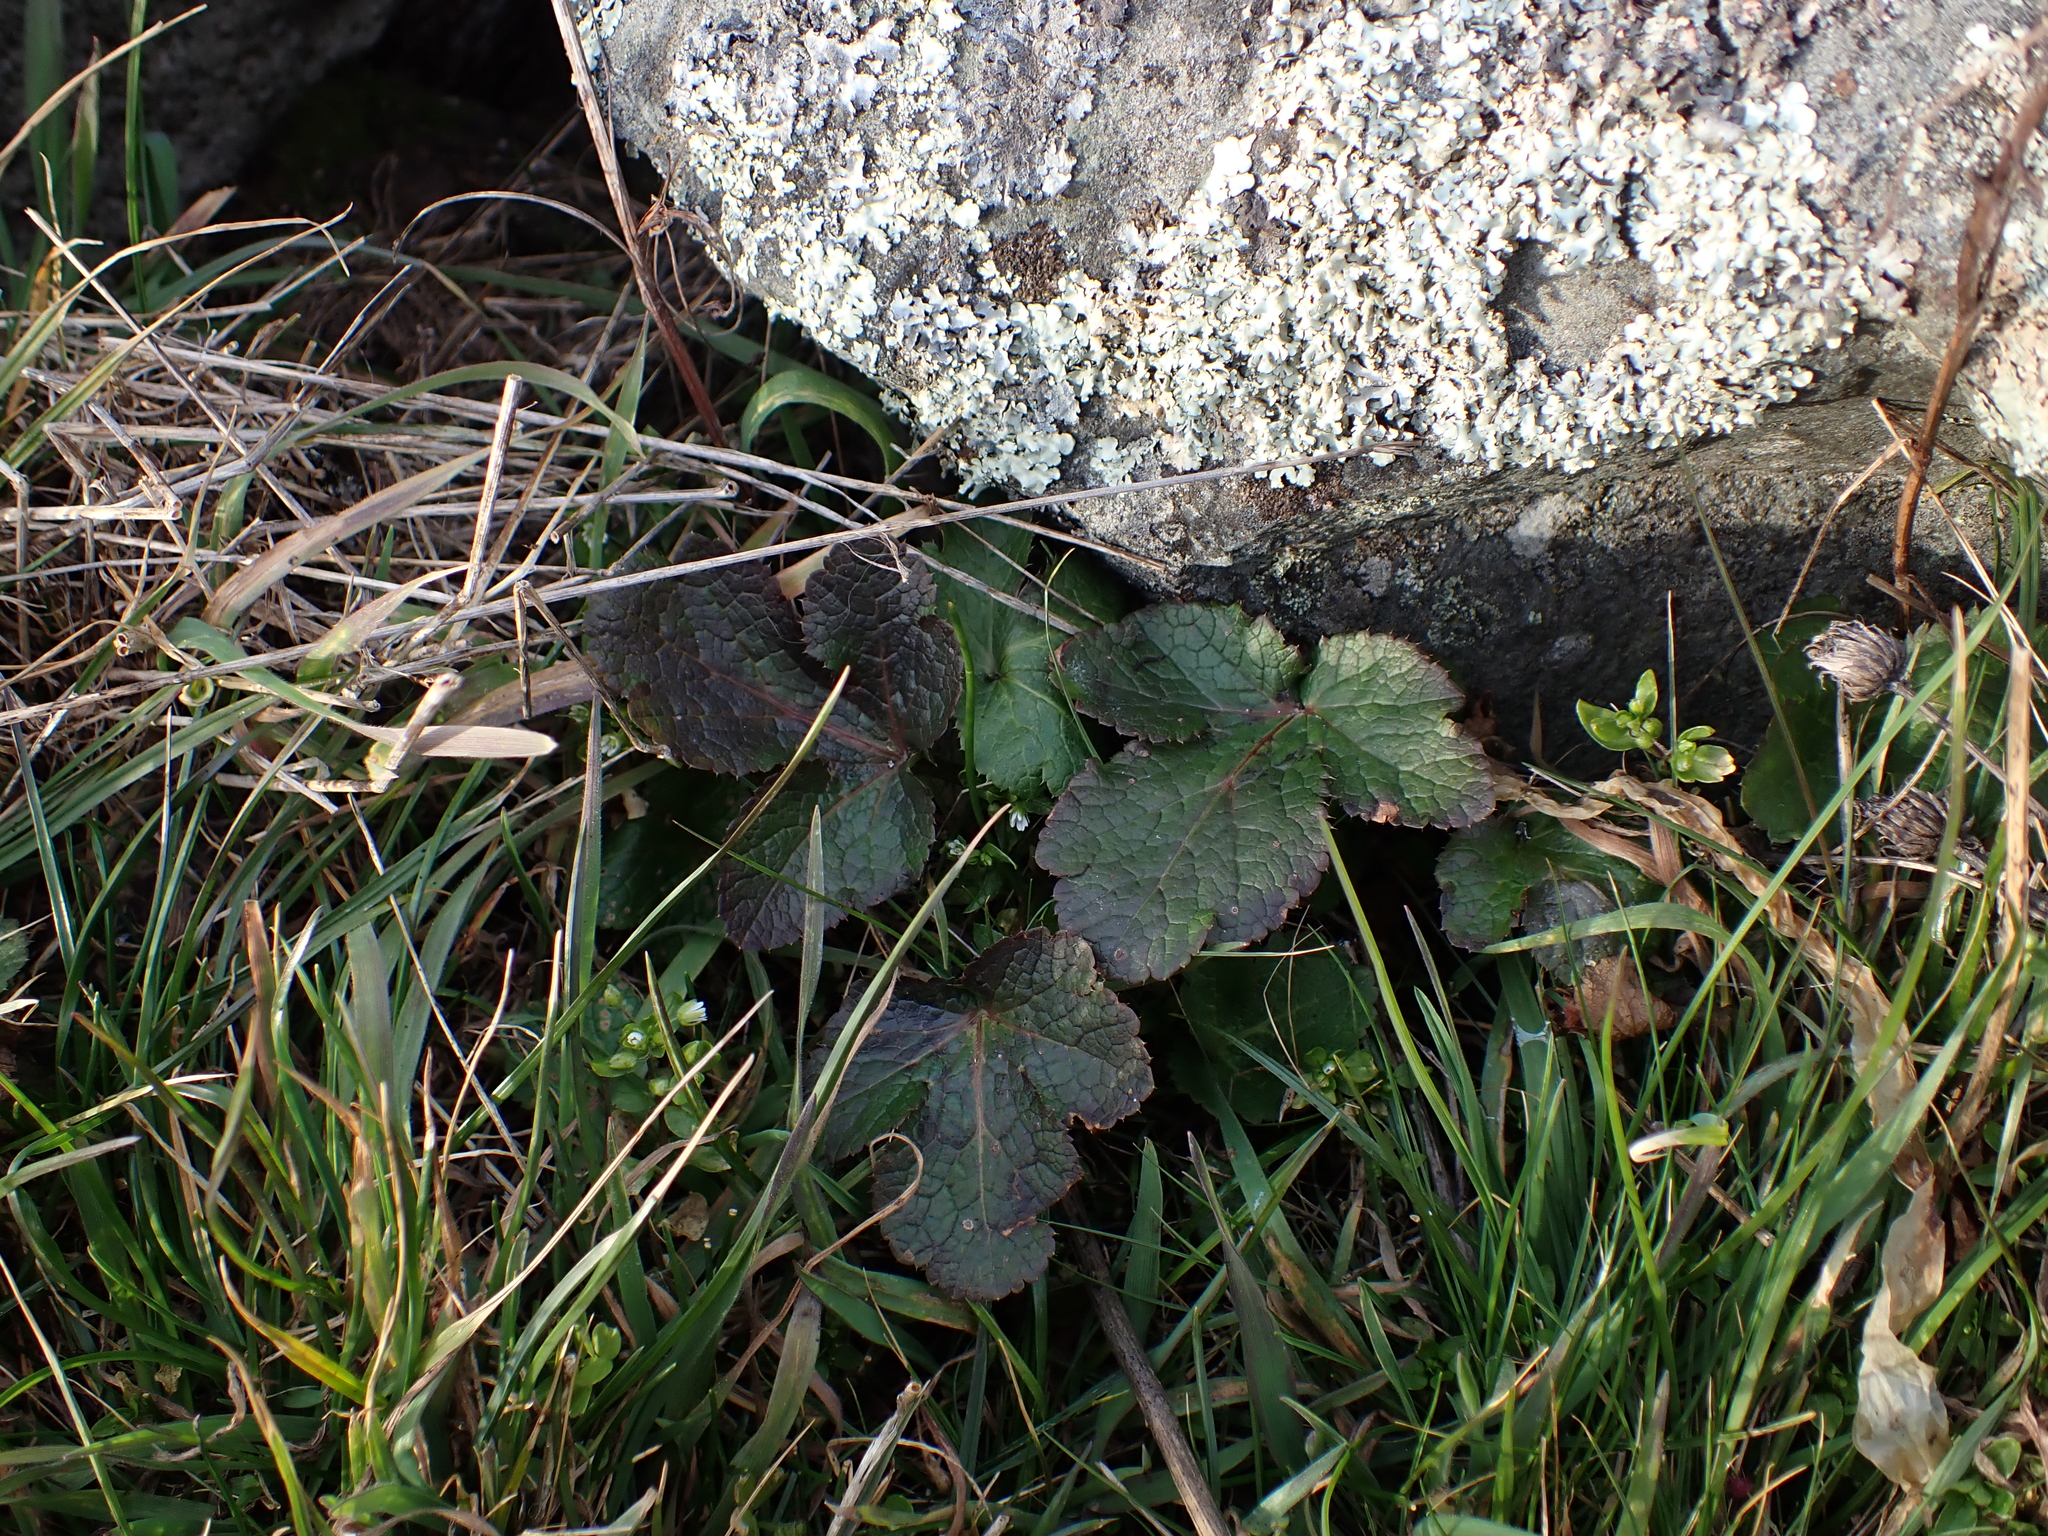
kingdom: Plantae
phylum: Tracheophyta
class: Magnoliopsida
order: Apiales
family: Apiaceae
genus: Sanicula
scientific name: Sanicula crassicaulis
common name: Western snakeroot
